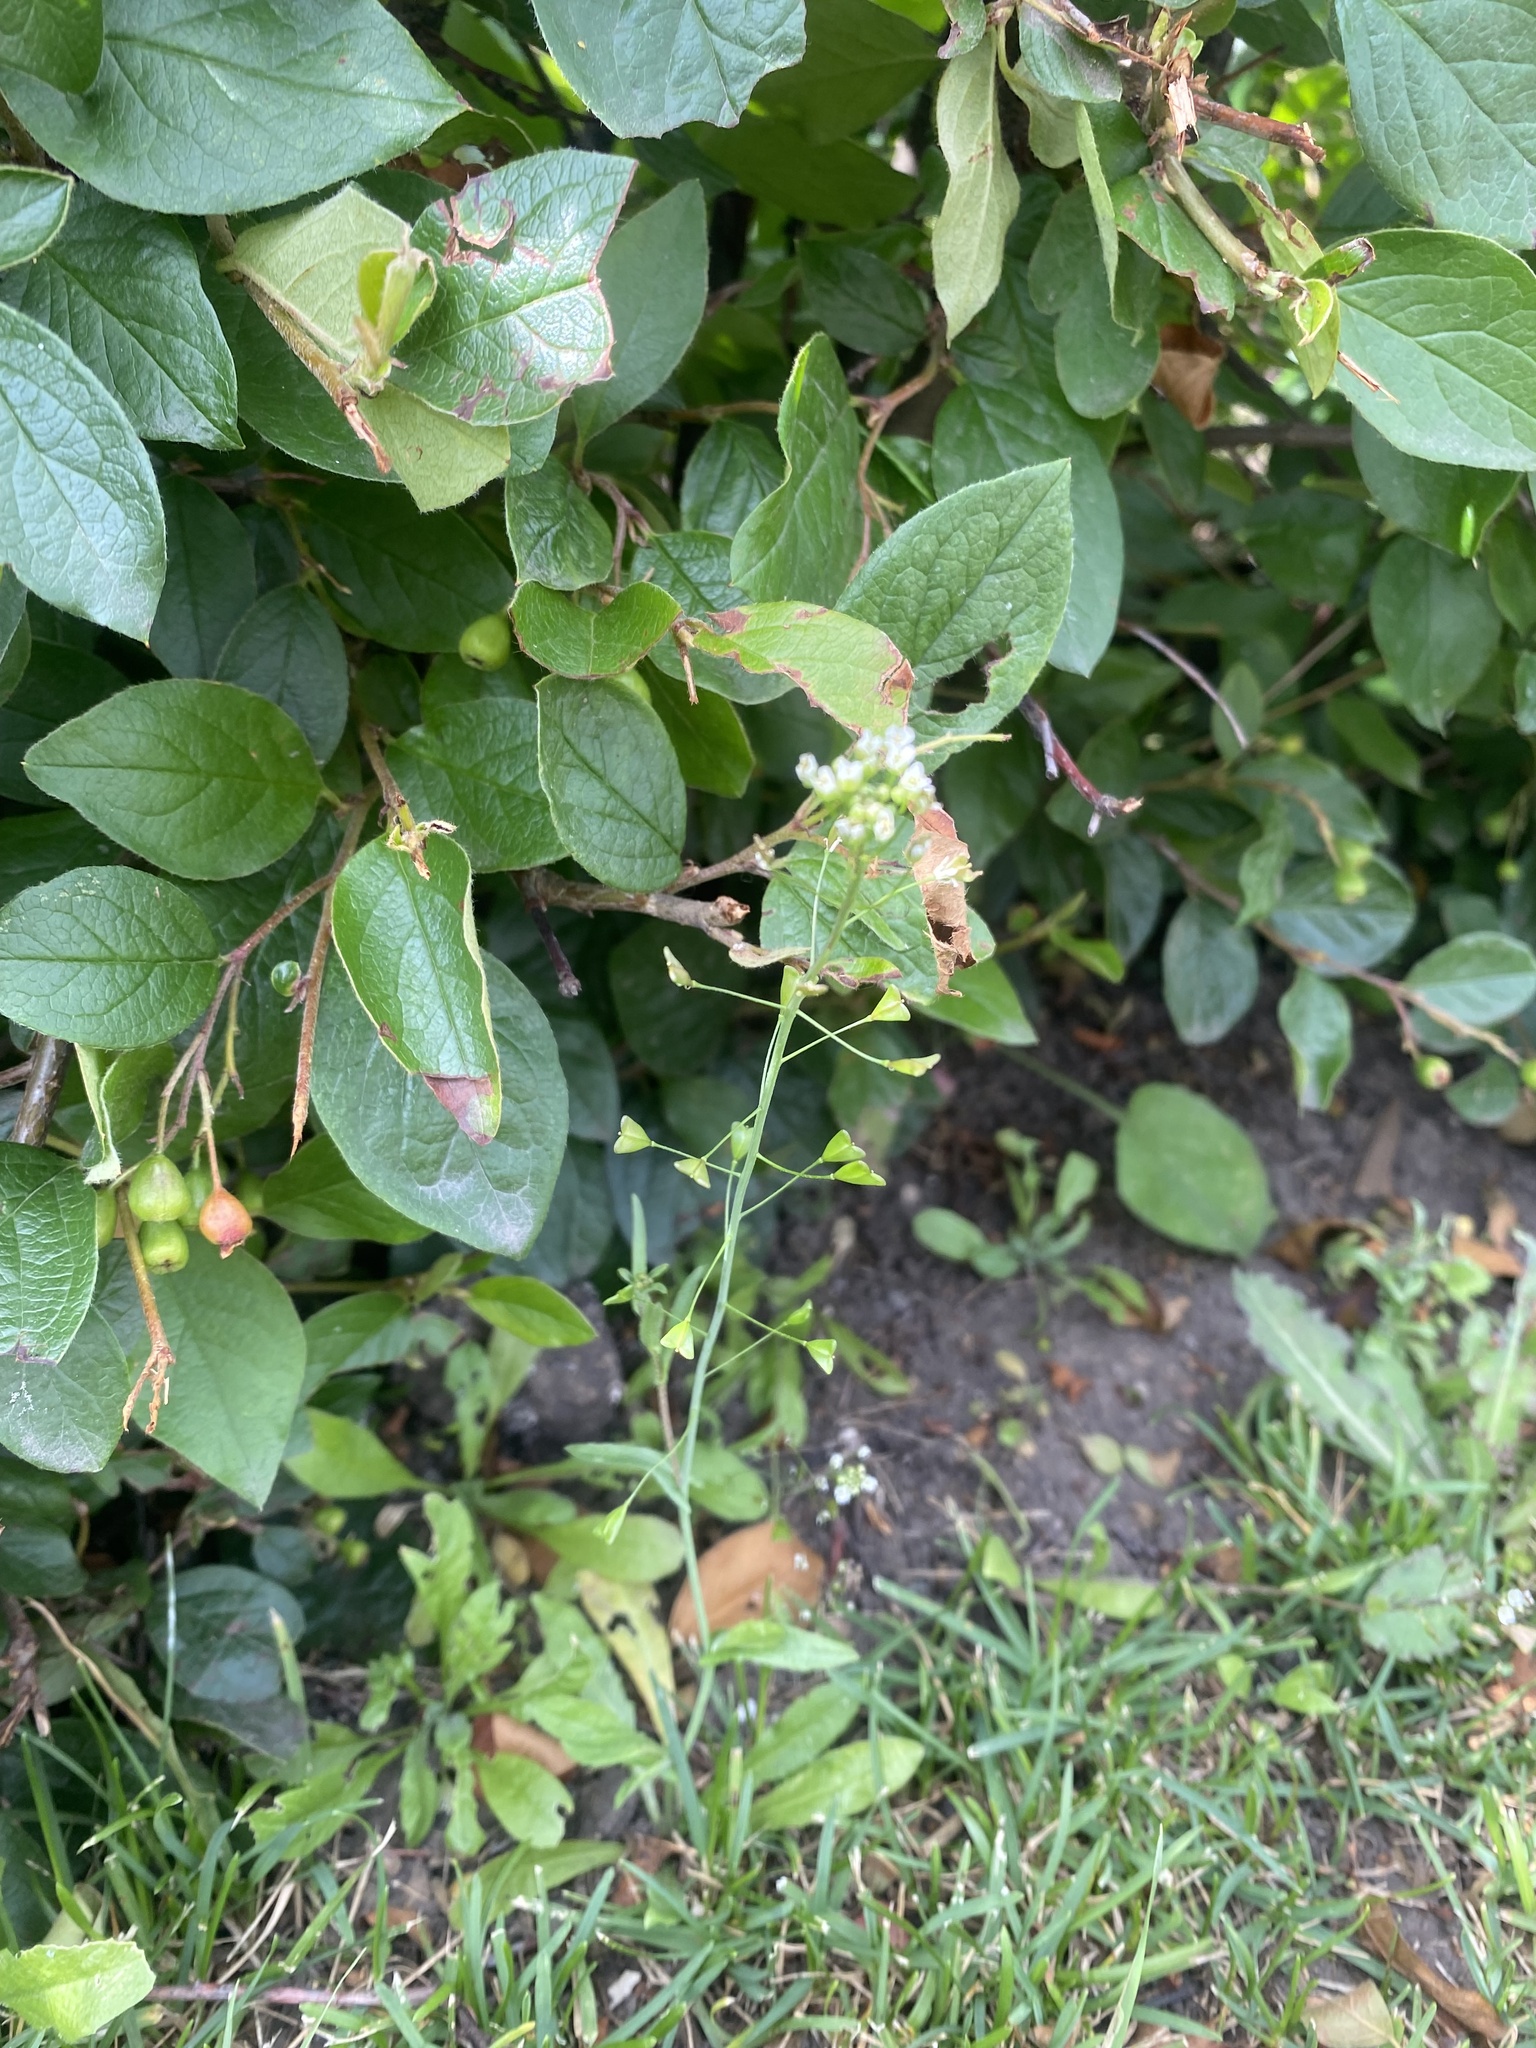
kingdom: Plantae
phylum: Tracheophyta
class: Magnoliopsida
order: Brassicales
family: Brassicaceae
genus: Capsella
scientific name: Capsella bursa-pastoris
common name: Shepherd's purse
